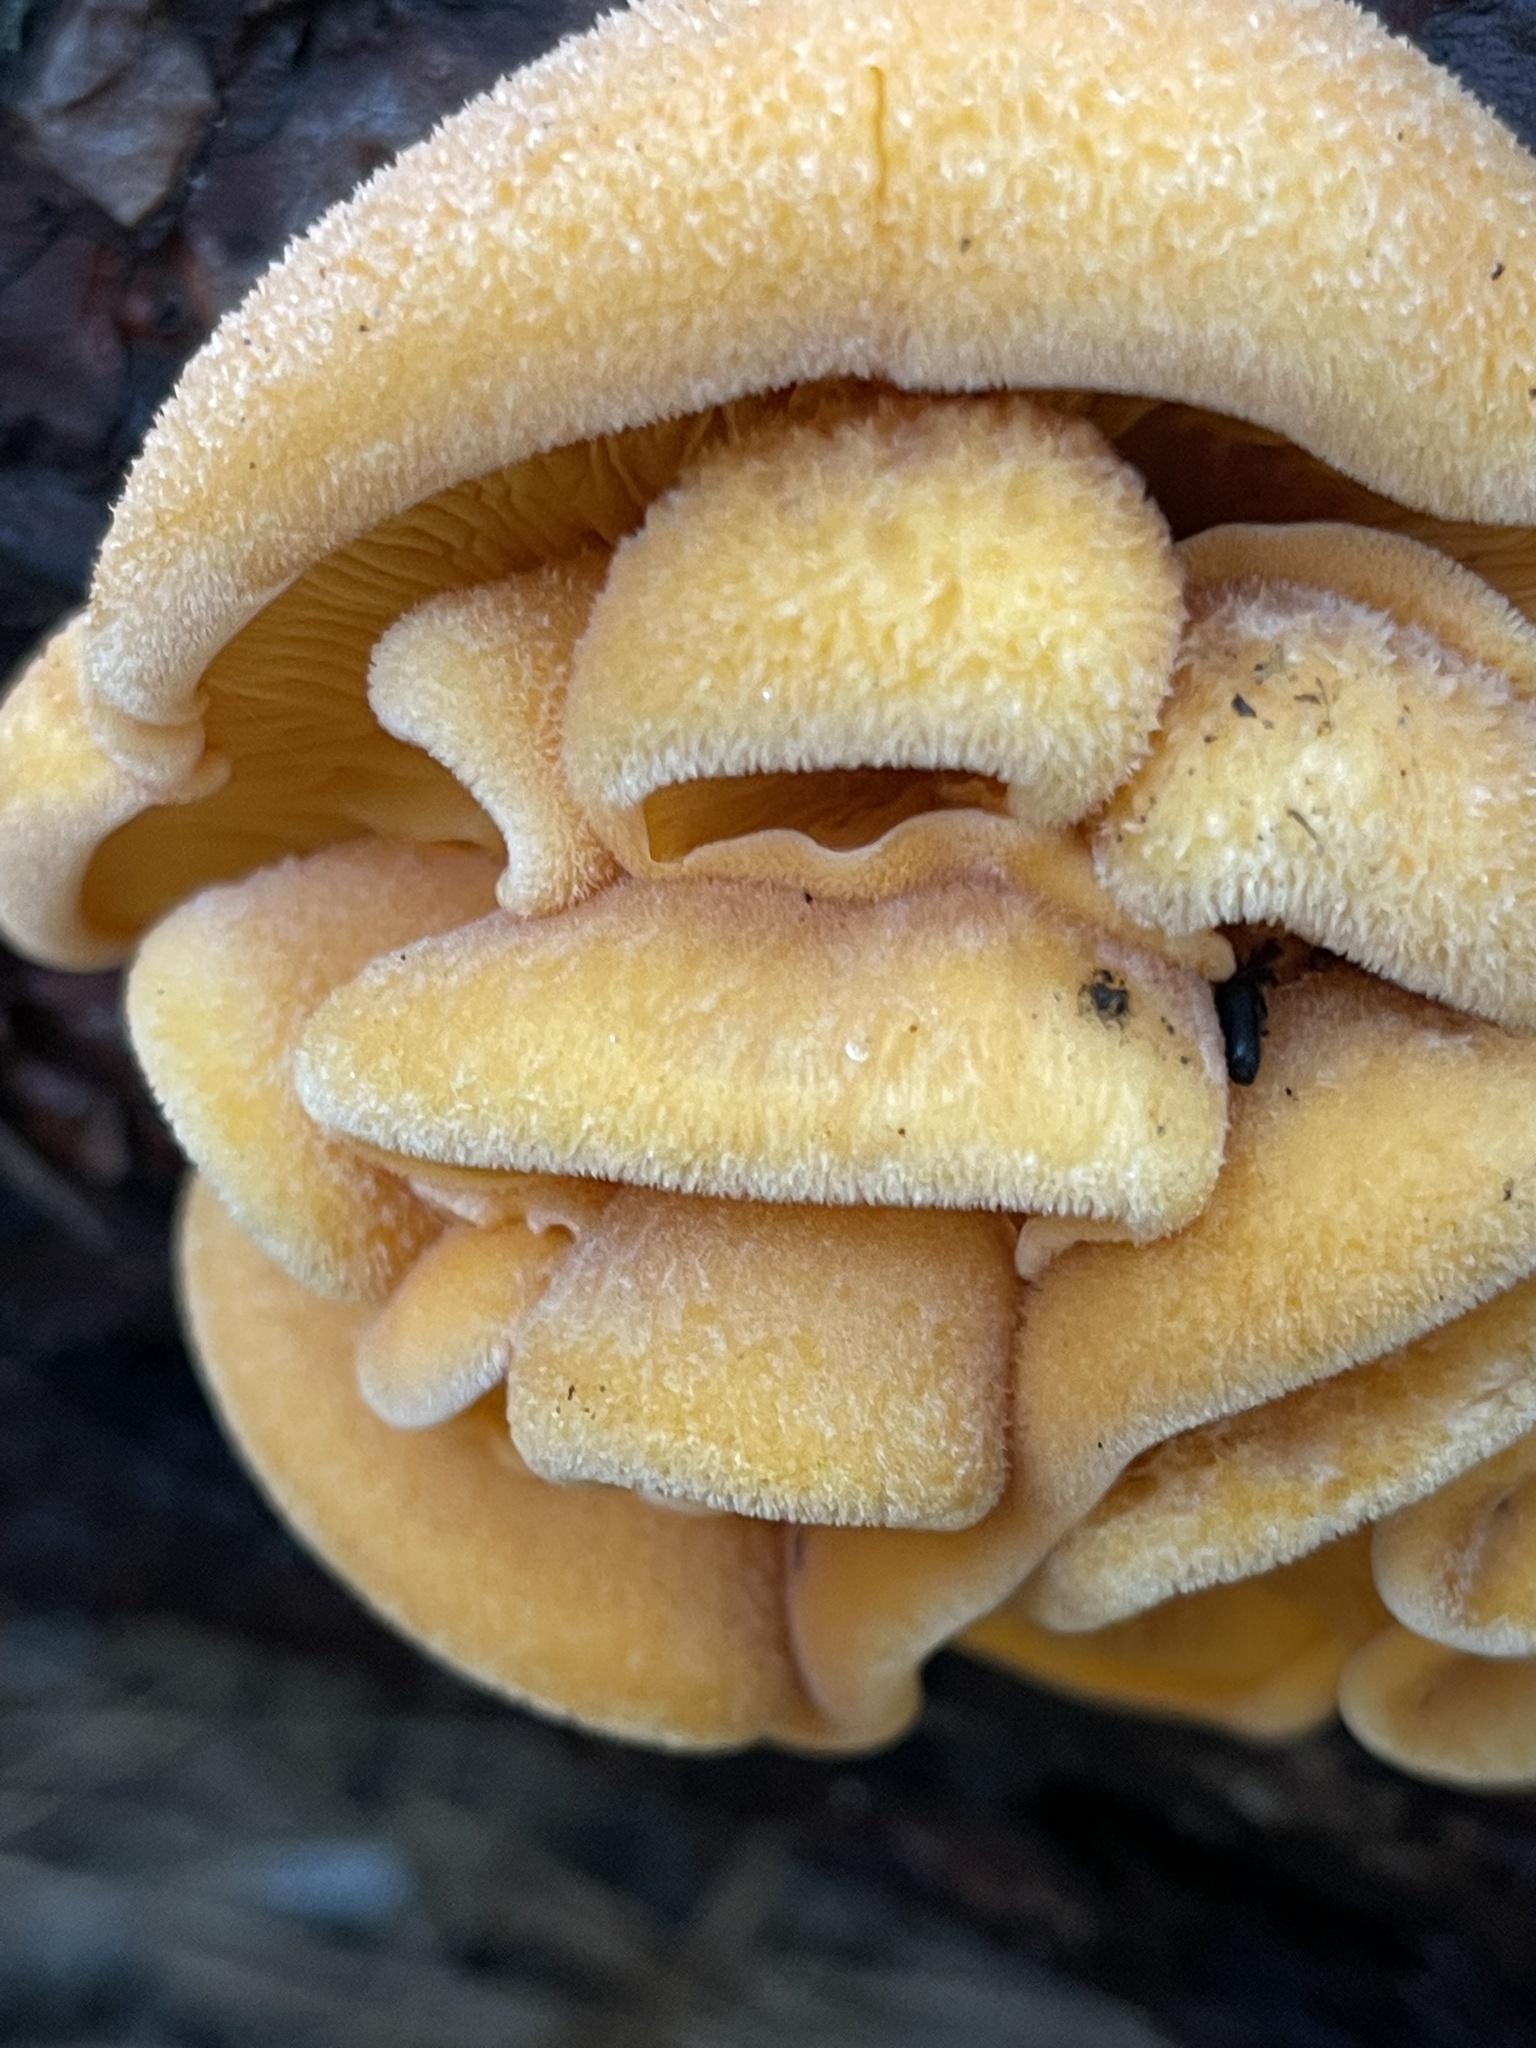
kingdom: Fungi
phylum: Basidiomycota
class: Agaricomycetes
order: Agaricales
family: Phyllotopsidaceae
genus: Phyllotopsis
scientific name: Phyllotopsis nidulans
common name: Orange mock oyster
